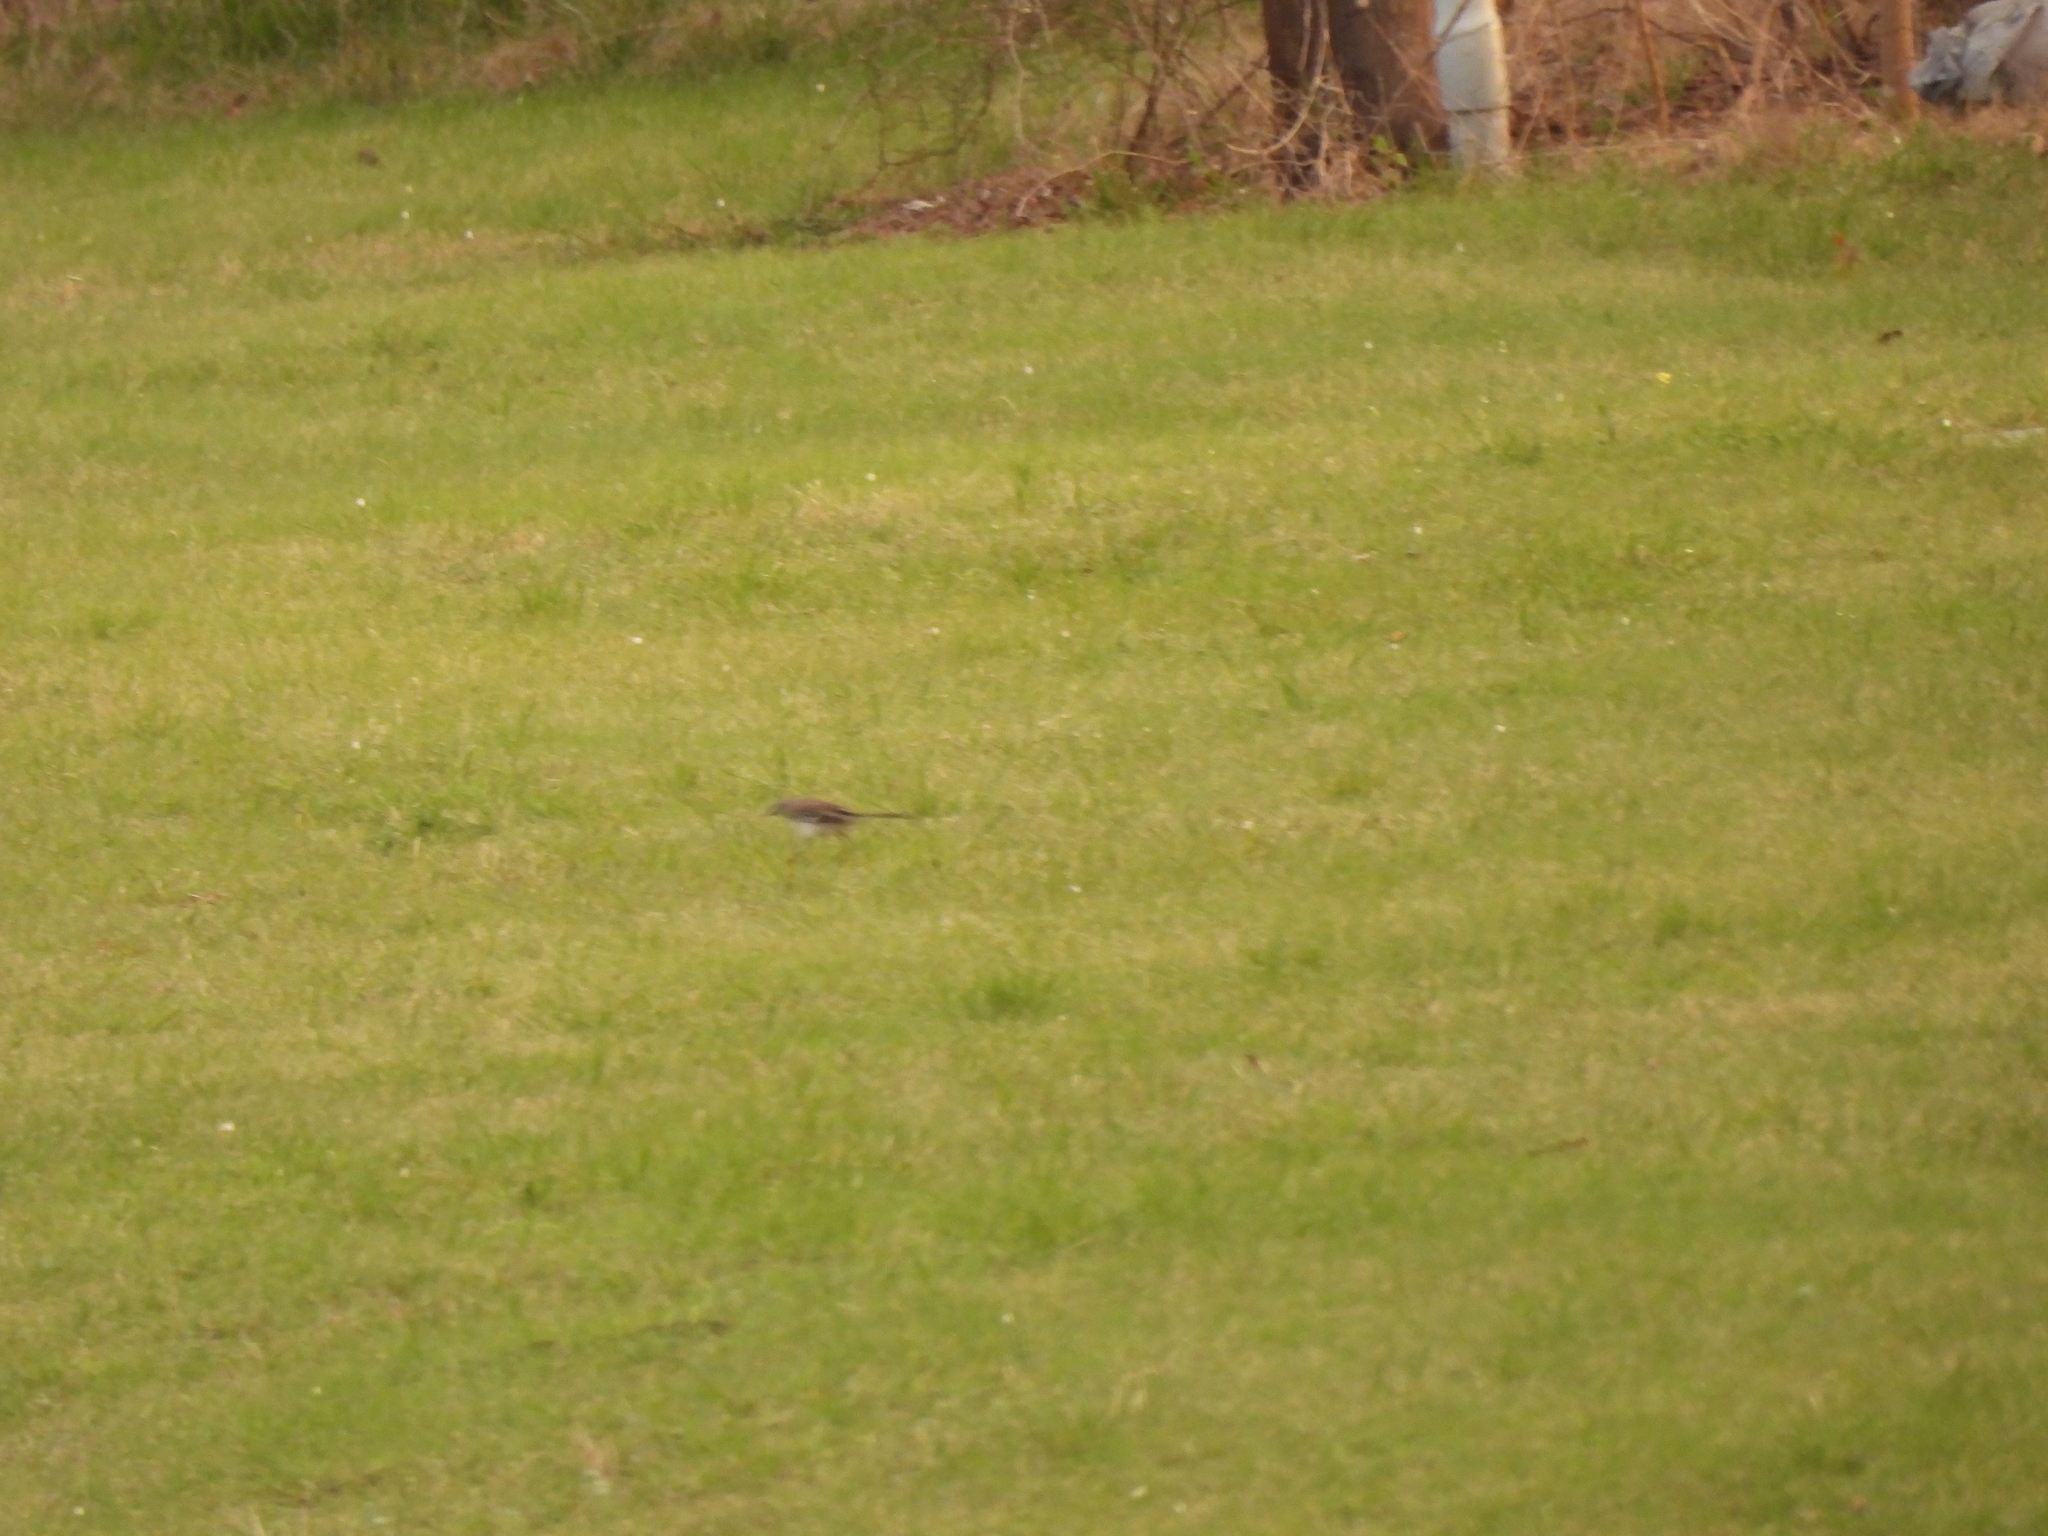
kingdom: Animalia
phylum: Chordata
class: Aves
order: Passeriformes
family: Mimidae
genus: Mimus
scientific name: Mimus polyglottos
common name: Northern mockingbird
